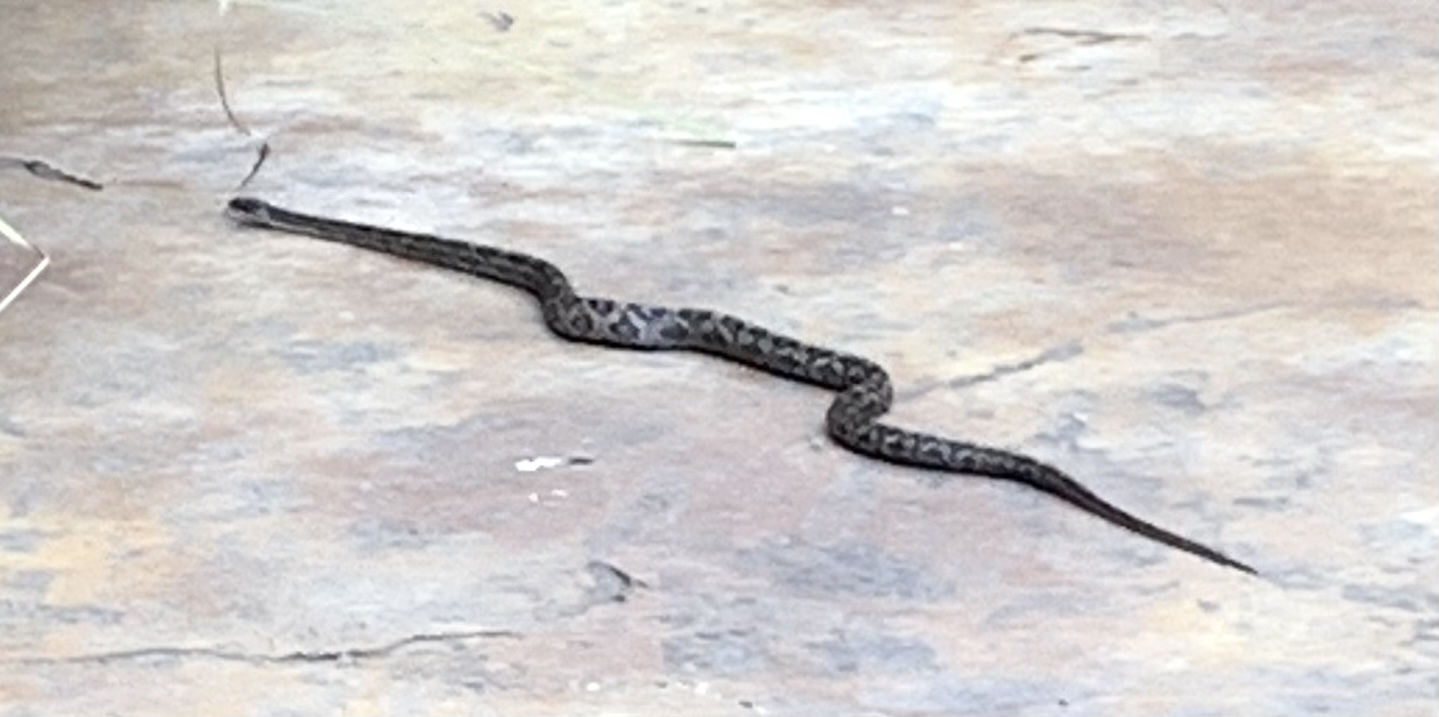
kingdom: Animalia
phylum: Chordata
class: Squamata
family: Colubridae
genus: Pantherophis
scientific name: Pantherophis obsoletus
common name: Black rat snake
